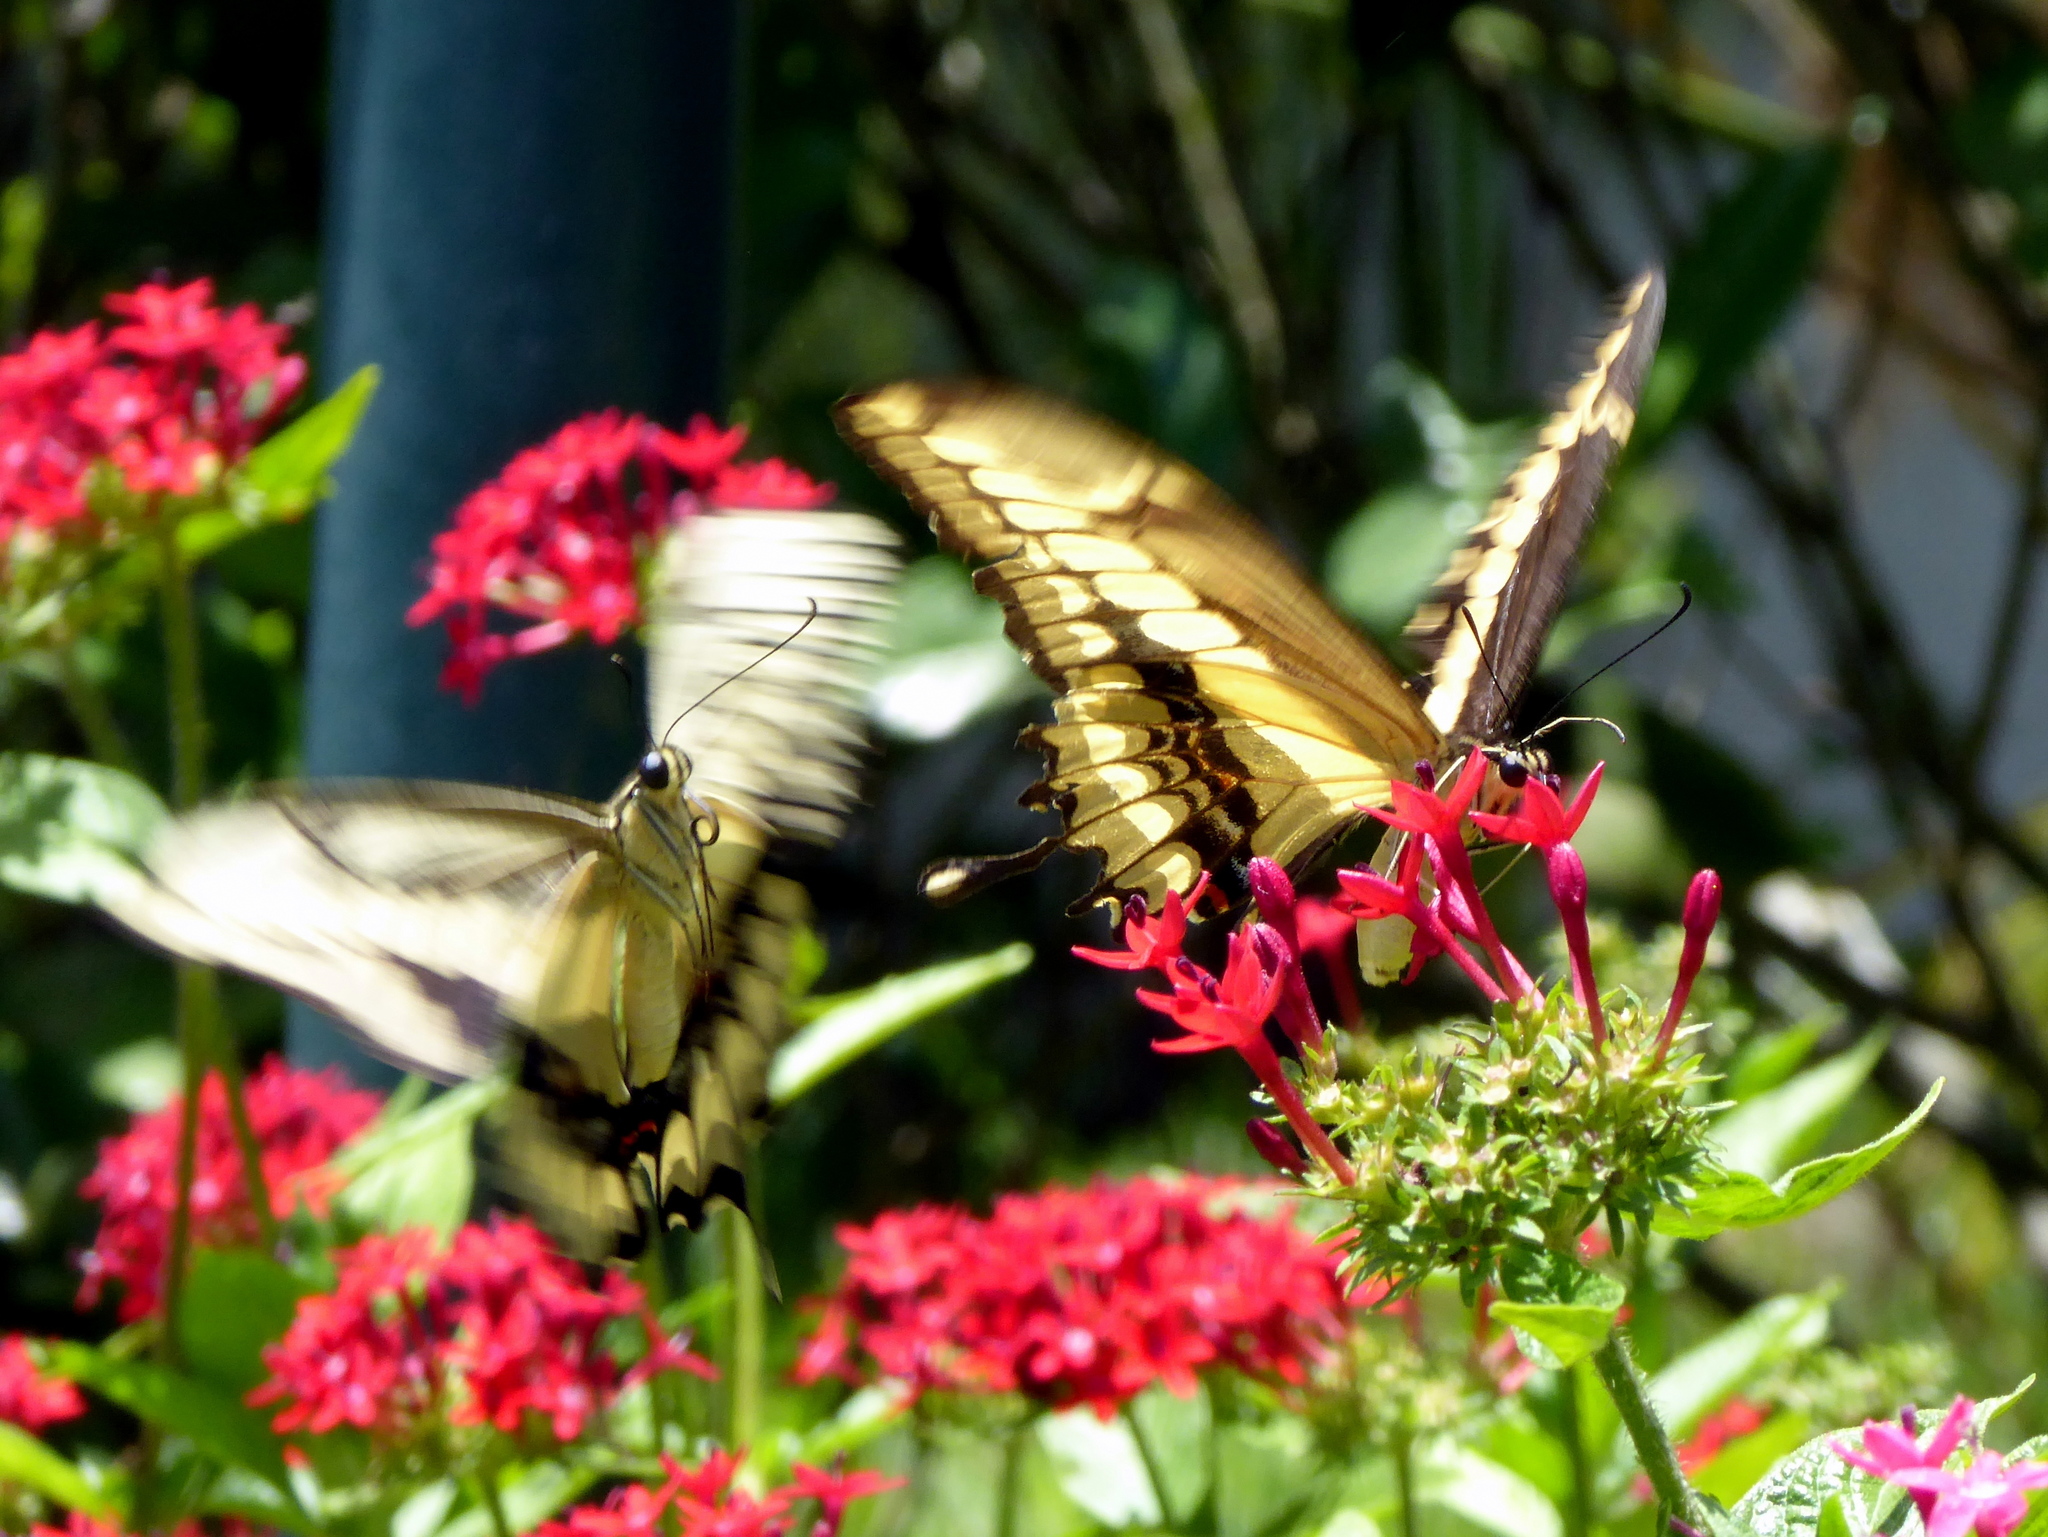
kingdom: Animalia
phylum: Arthropoda
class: Insecta
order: Lepidoptera
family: Papilionidae
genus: Papilio
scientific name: Papilio thoas
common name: King swallowtail
